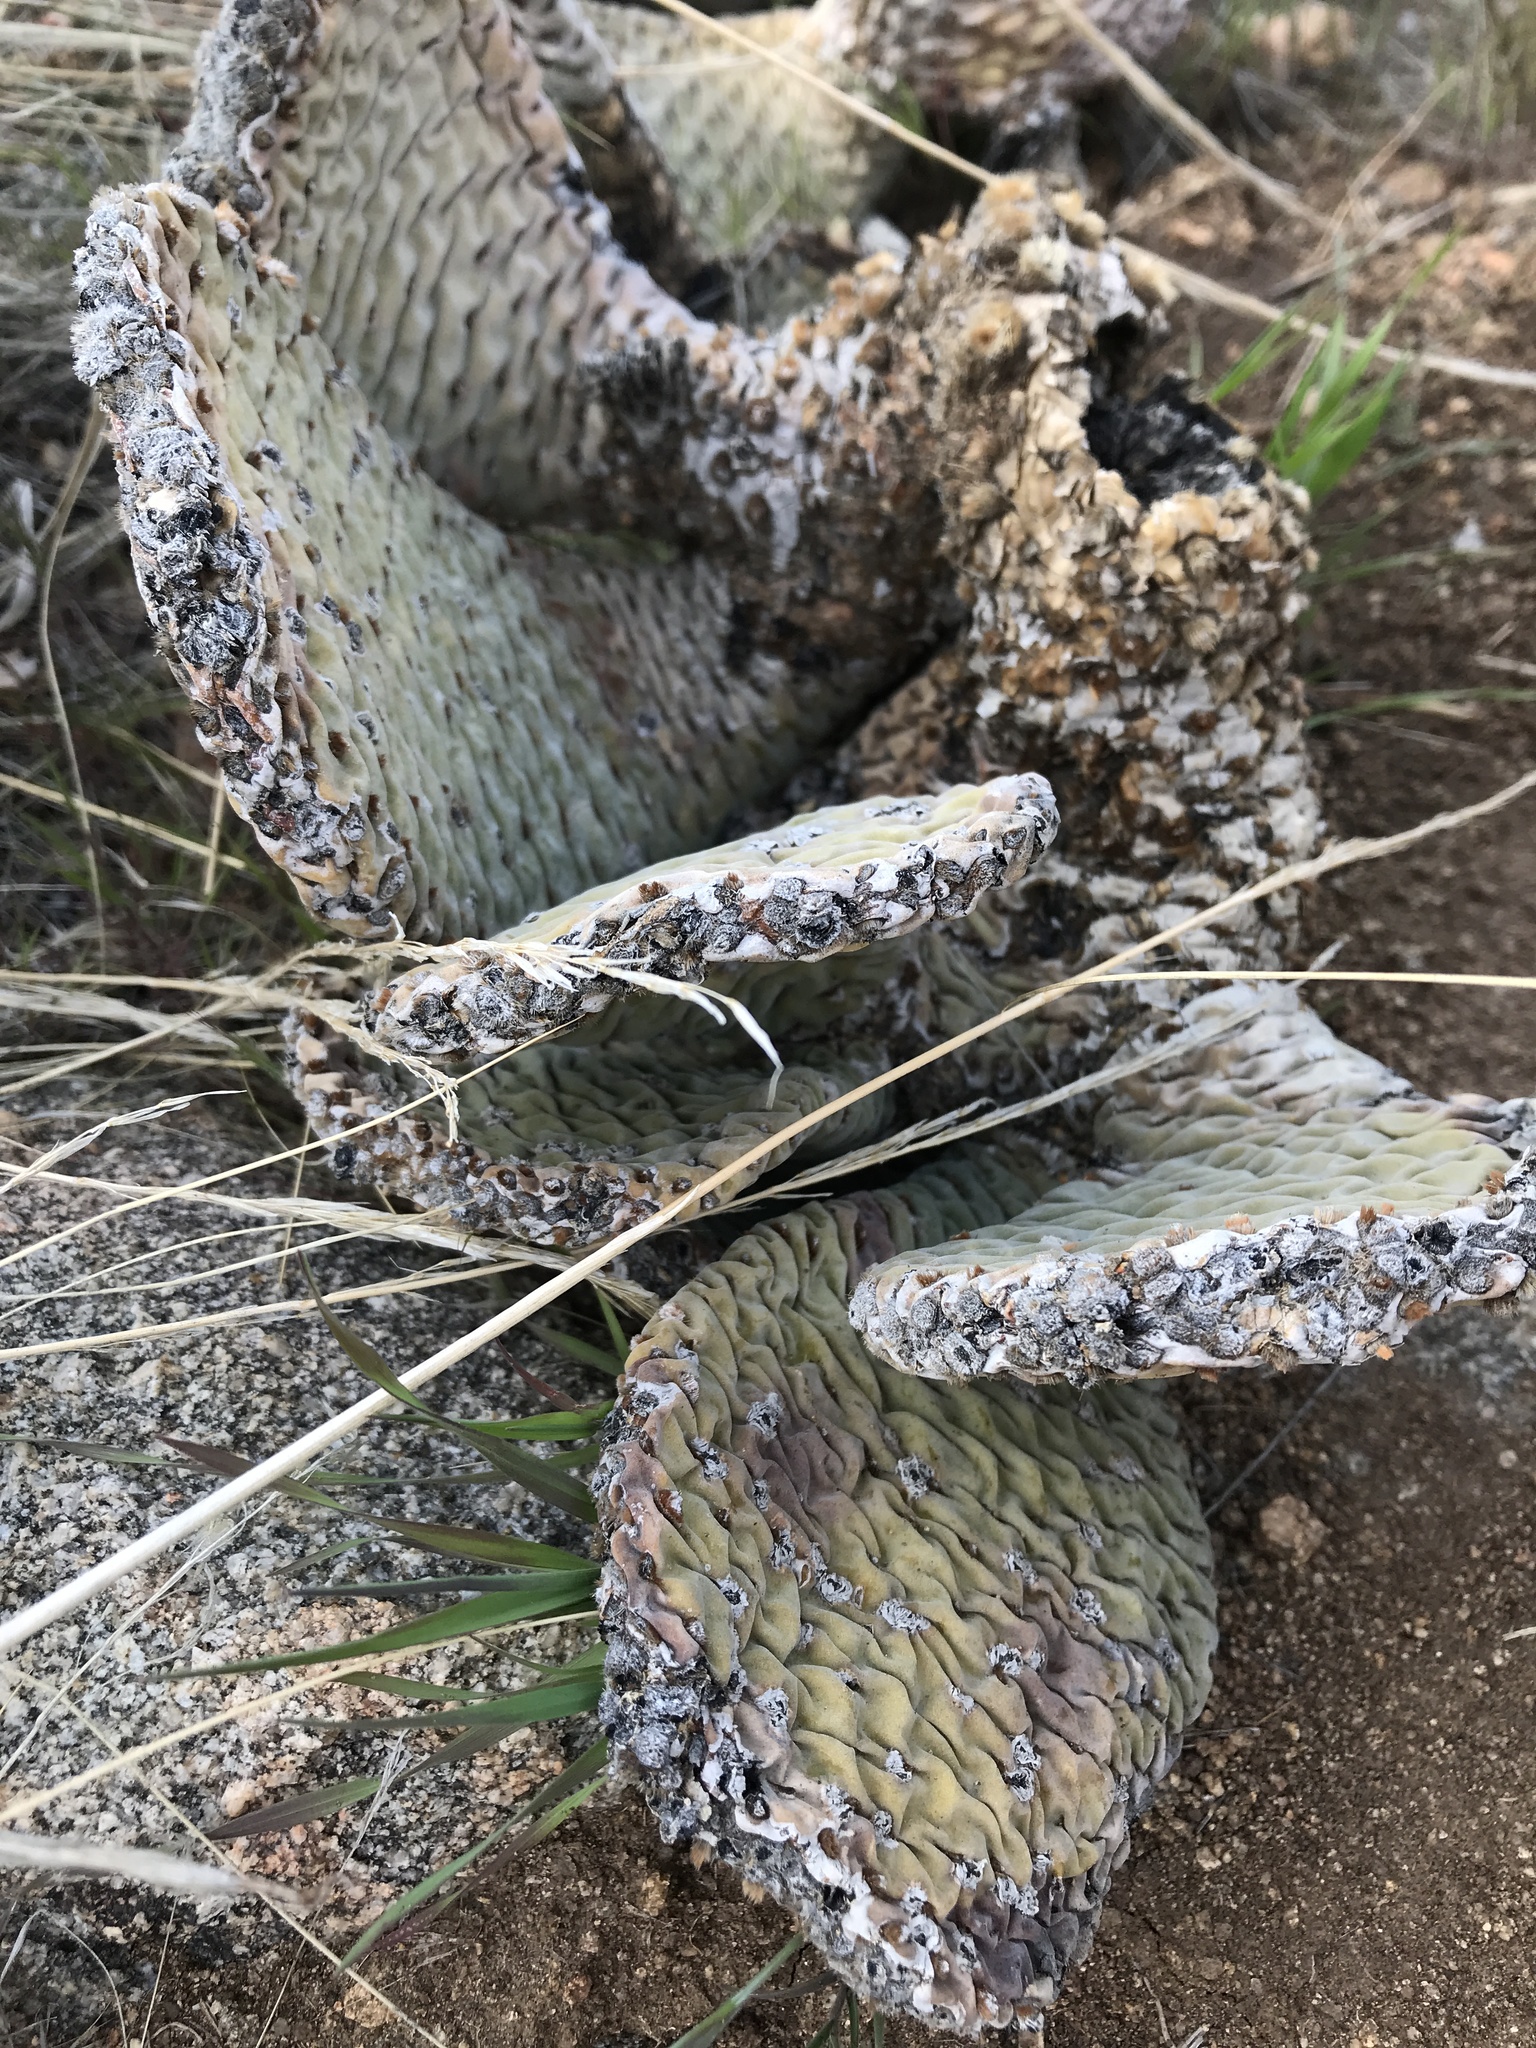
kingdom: Plantae
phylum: Tracheophyta
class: Magnoliopsida
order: Caryophyllales
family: Cactaceae
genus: Opuntia
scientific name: Opuntia basilaris
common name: Beavertail prickly-pear
